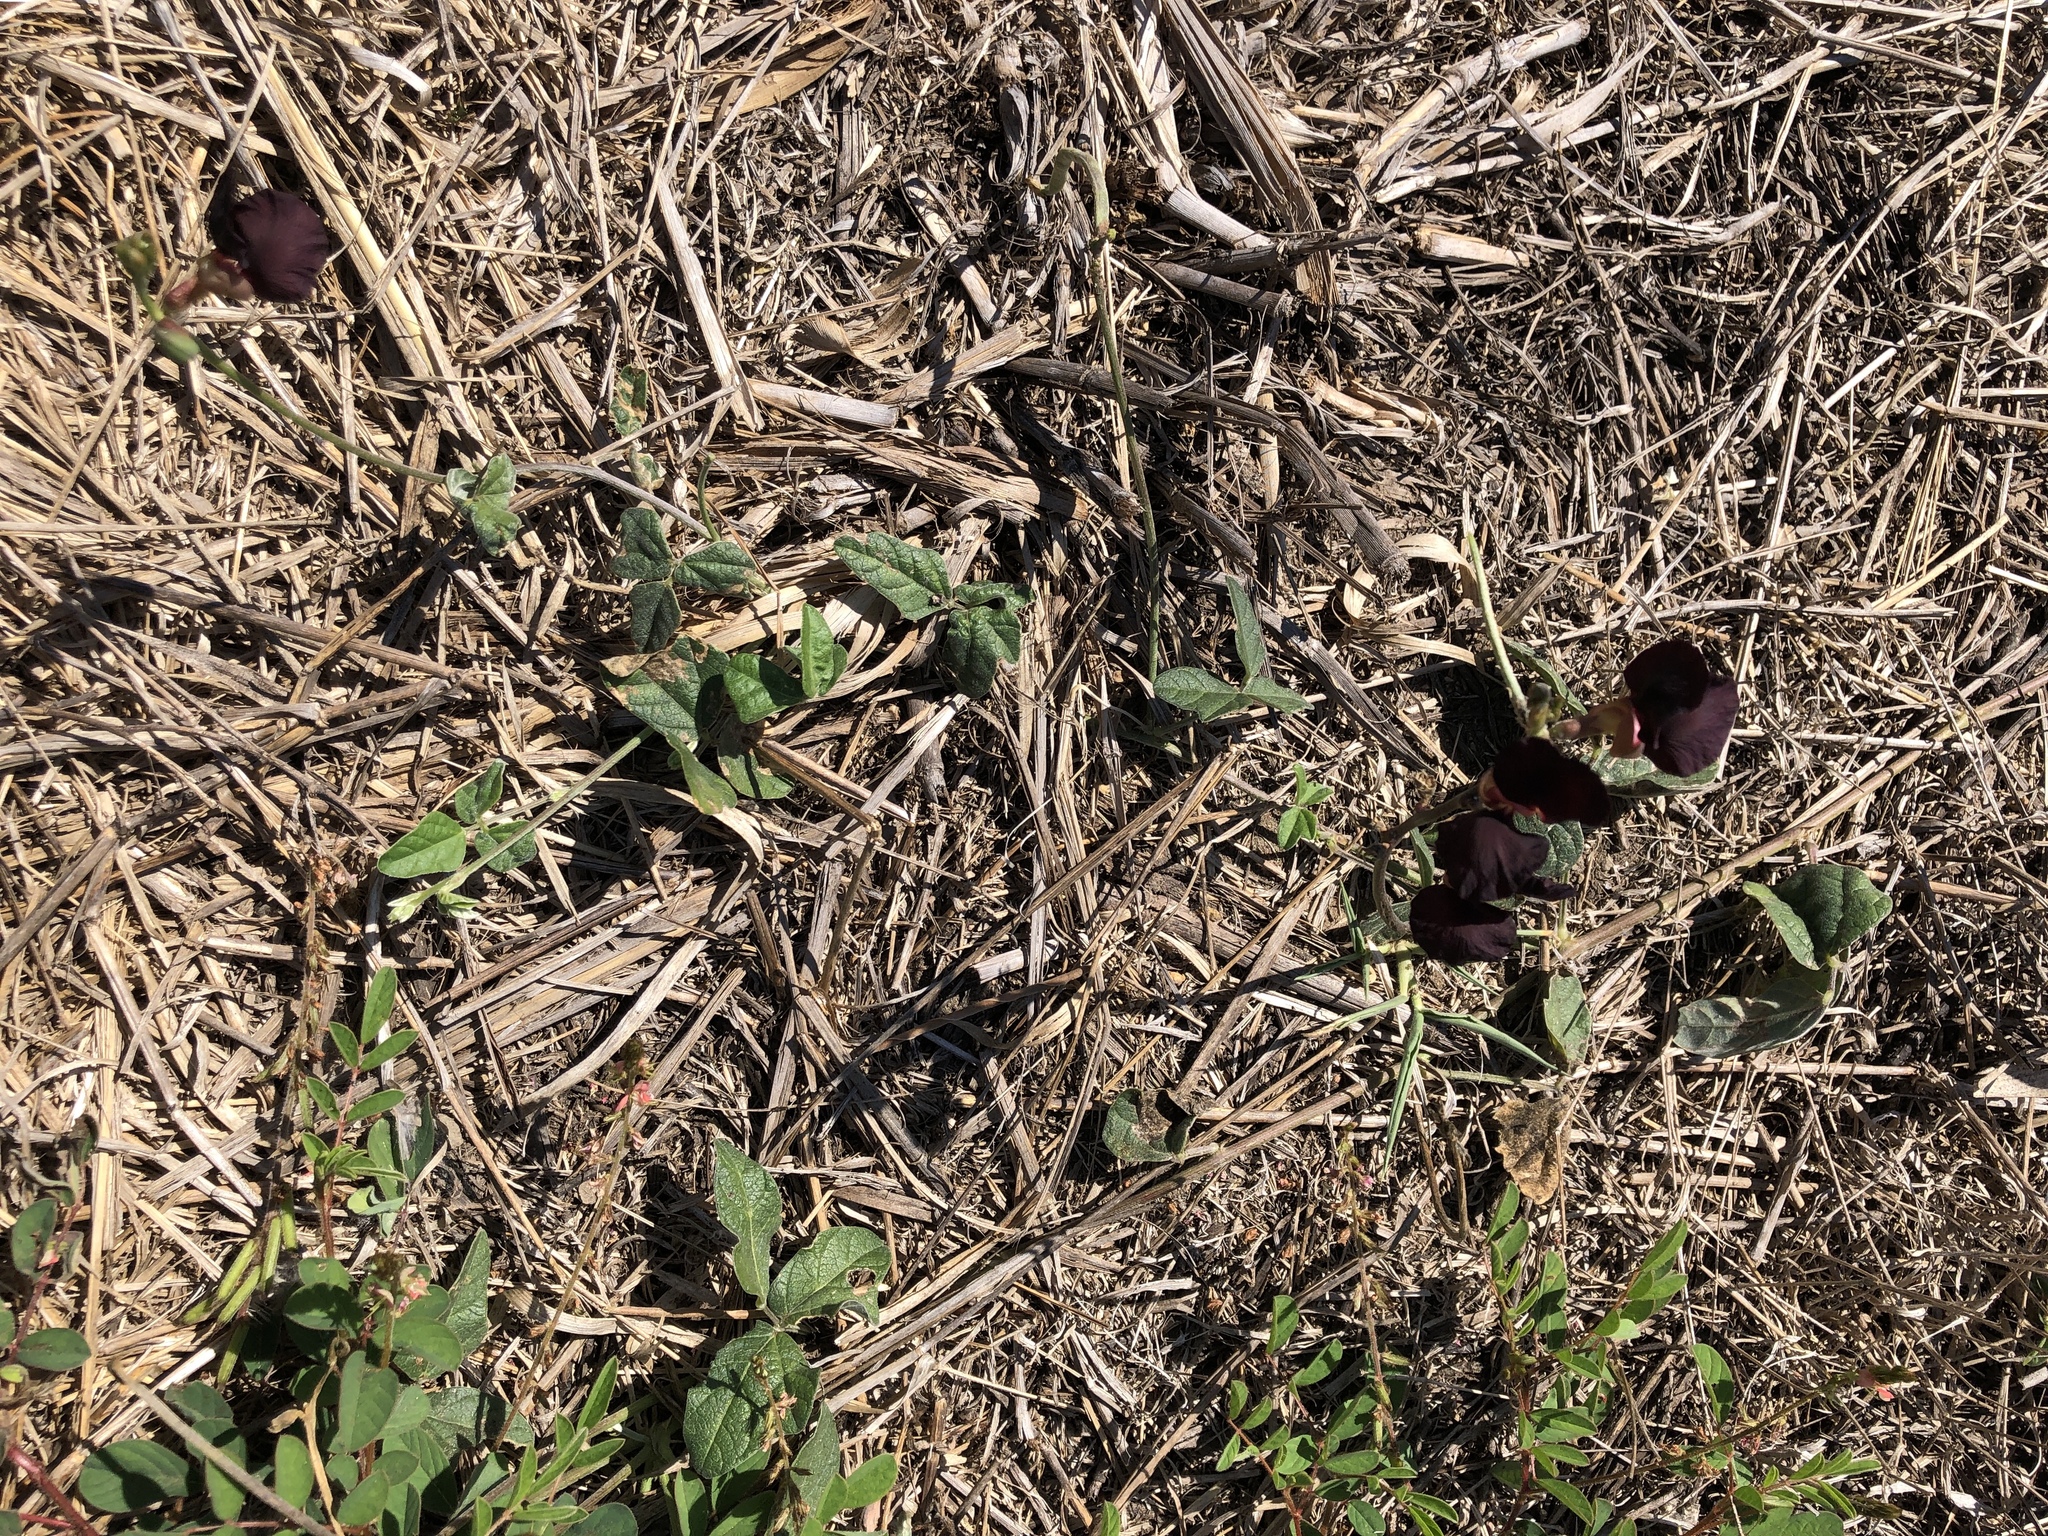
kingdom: Plantae
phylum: Tracheophyta
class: Magnoliopsida
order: Fabales
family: Fabaceae
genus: Macroptilium
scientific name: Macroptilium atropurpureum
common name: Purple bushbean
